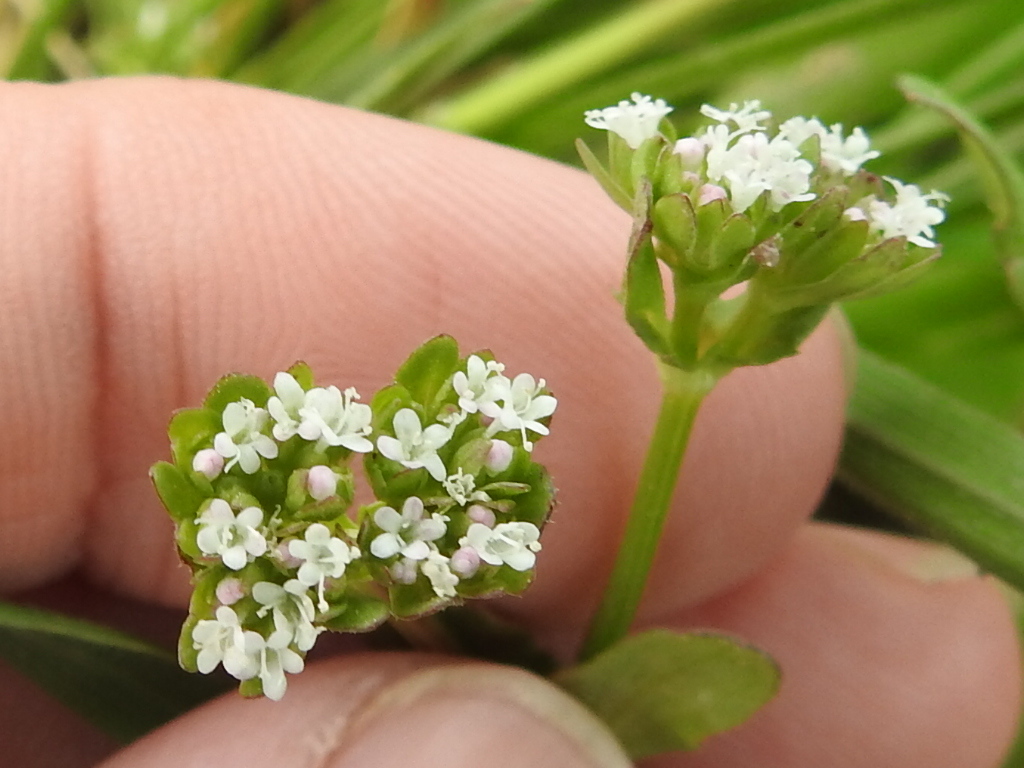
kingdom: Plantae
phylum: Tracheophyta
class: Magnoliopsida
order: Dipsacales
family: Caprifoliaceae
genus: Valerianella
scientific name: Valerianella radiata
